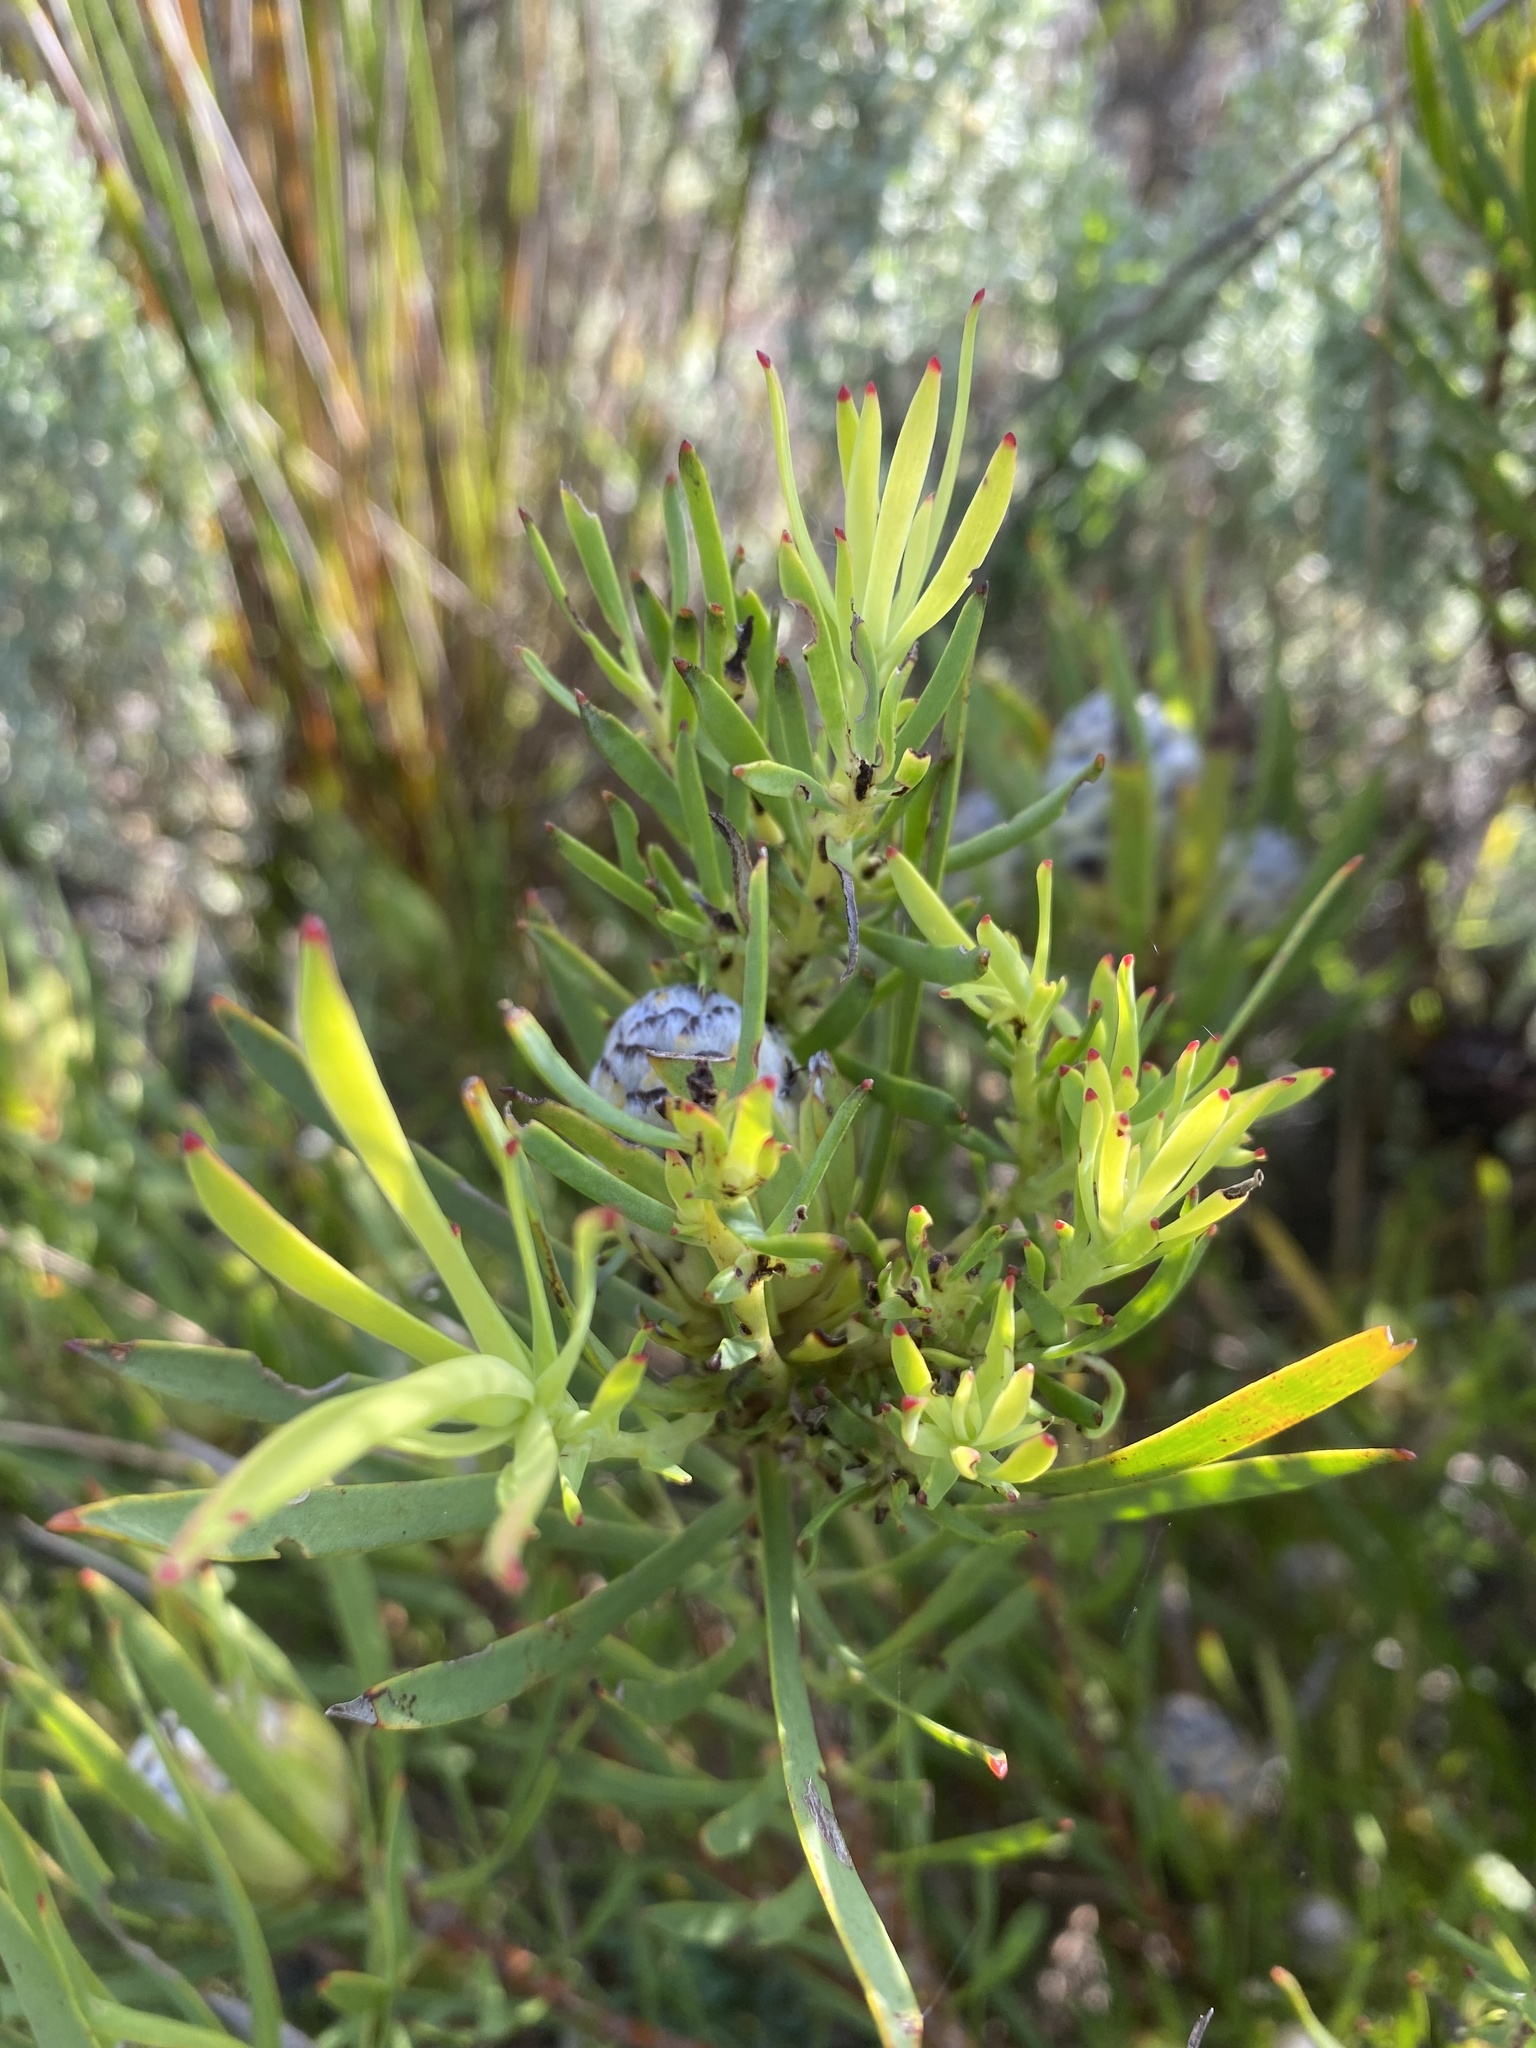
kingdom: Plantae
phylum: Tracheophyta
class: Magnoliopsida
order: Proteales
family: Proteaceae
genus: Leucadendron
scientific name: Leucadendron salignum
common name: Common sunshine conebush
